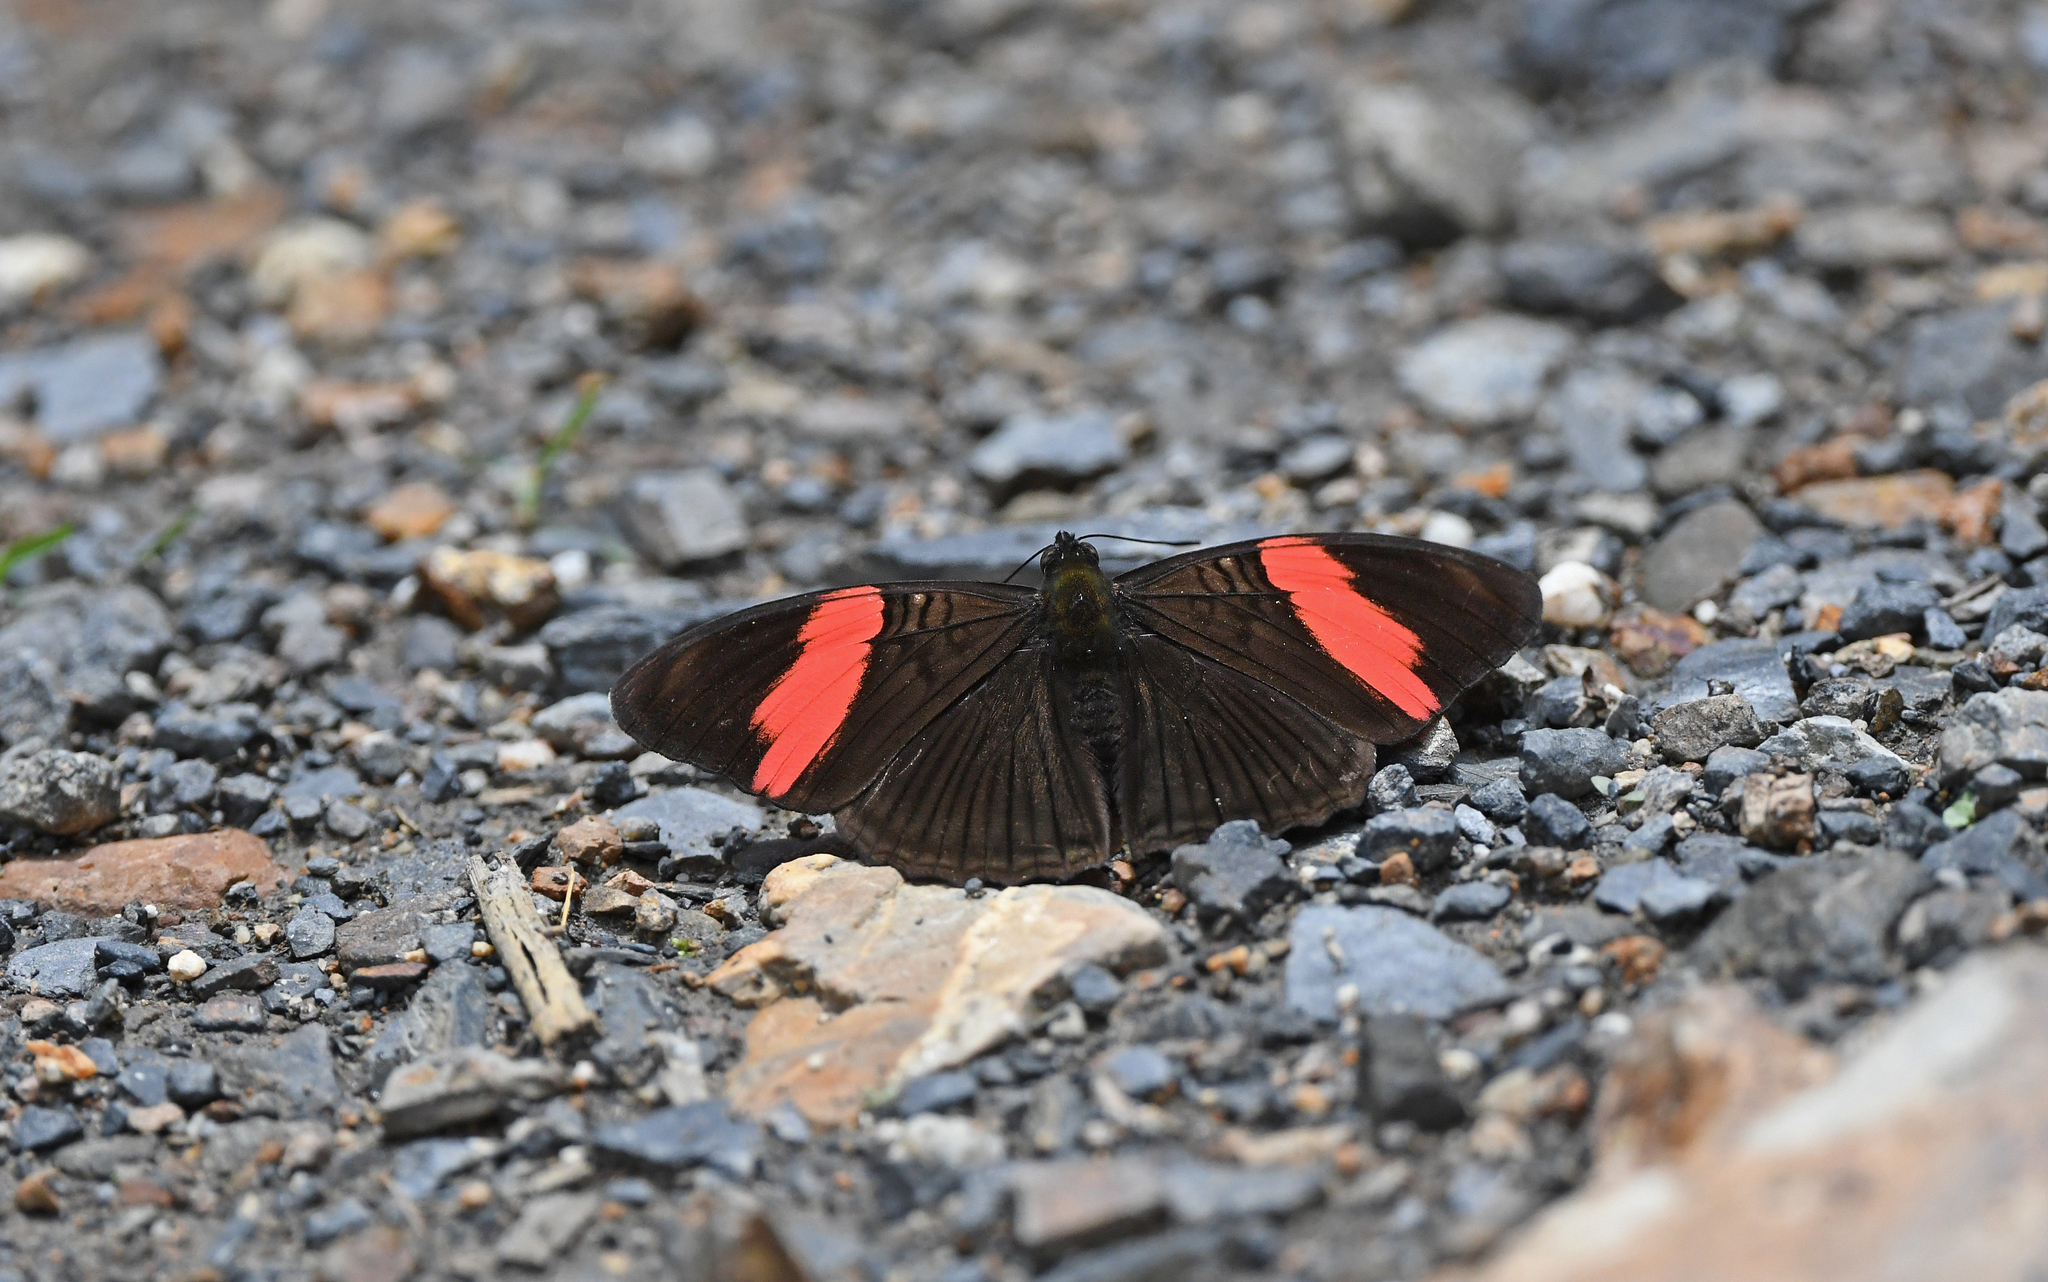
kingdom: Animalia
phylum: Arthropoda
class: Insecta
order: Lepidoptera
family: Nymphalidae
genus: Limenitis
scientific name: Limenitis isis
